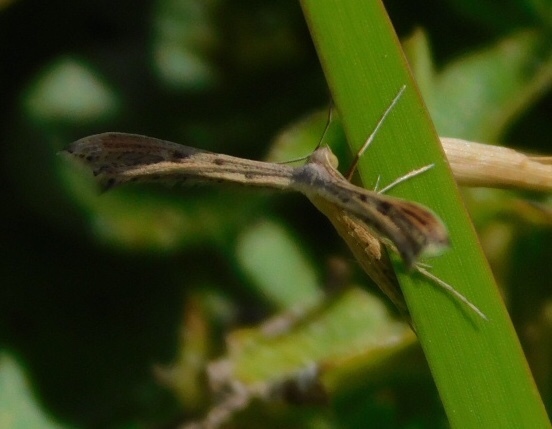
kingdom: Animalia
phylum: Arthropoda
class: Insecta
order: Lepidoptera
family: Pterophoridae
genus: Exelastis
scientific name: Exelastis pumilio
